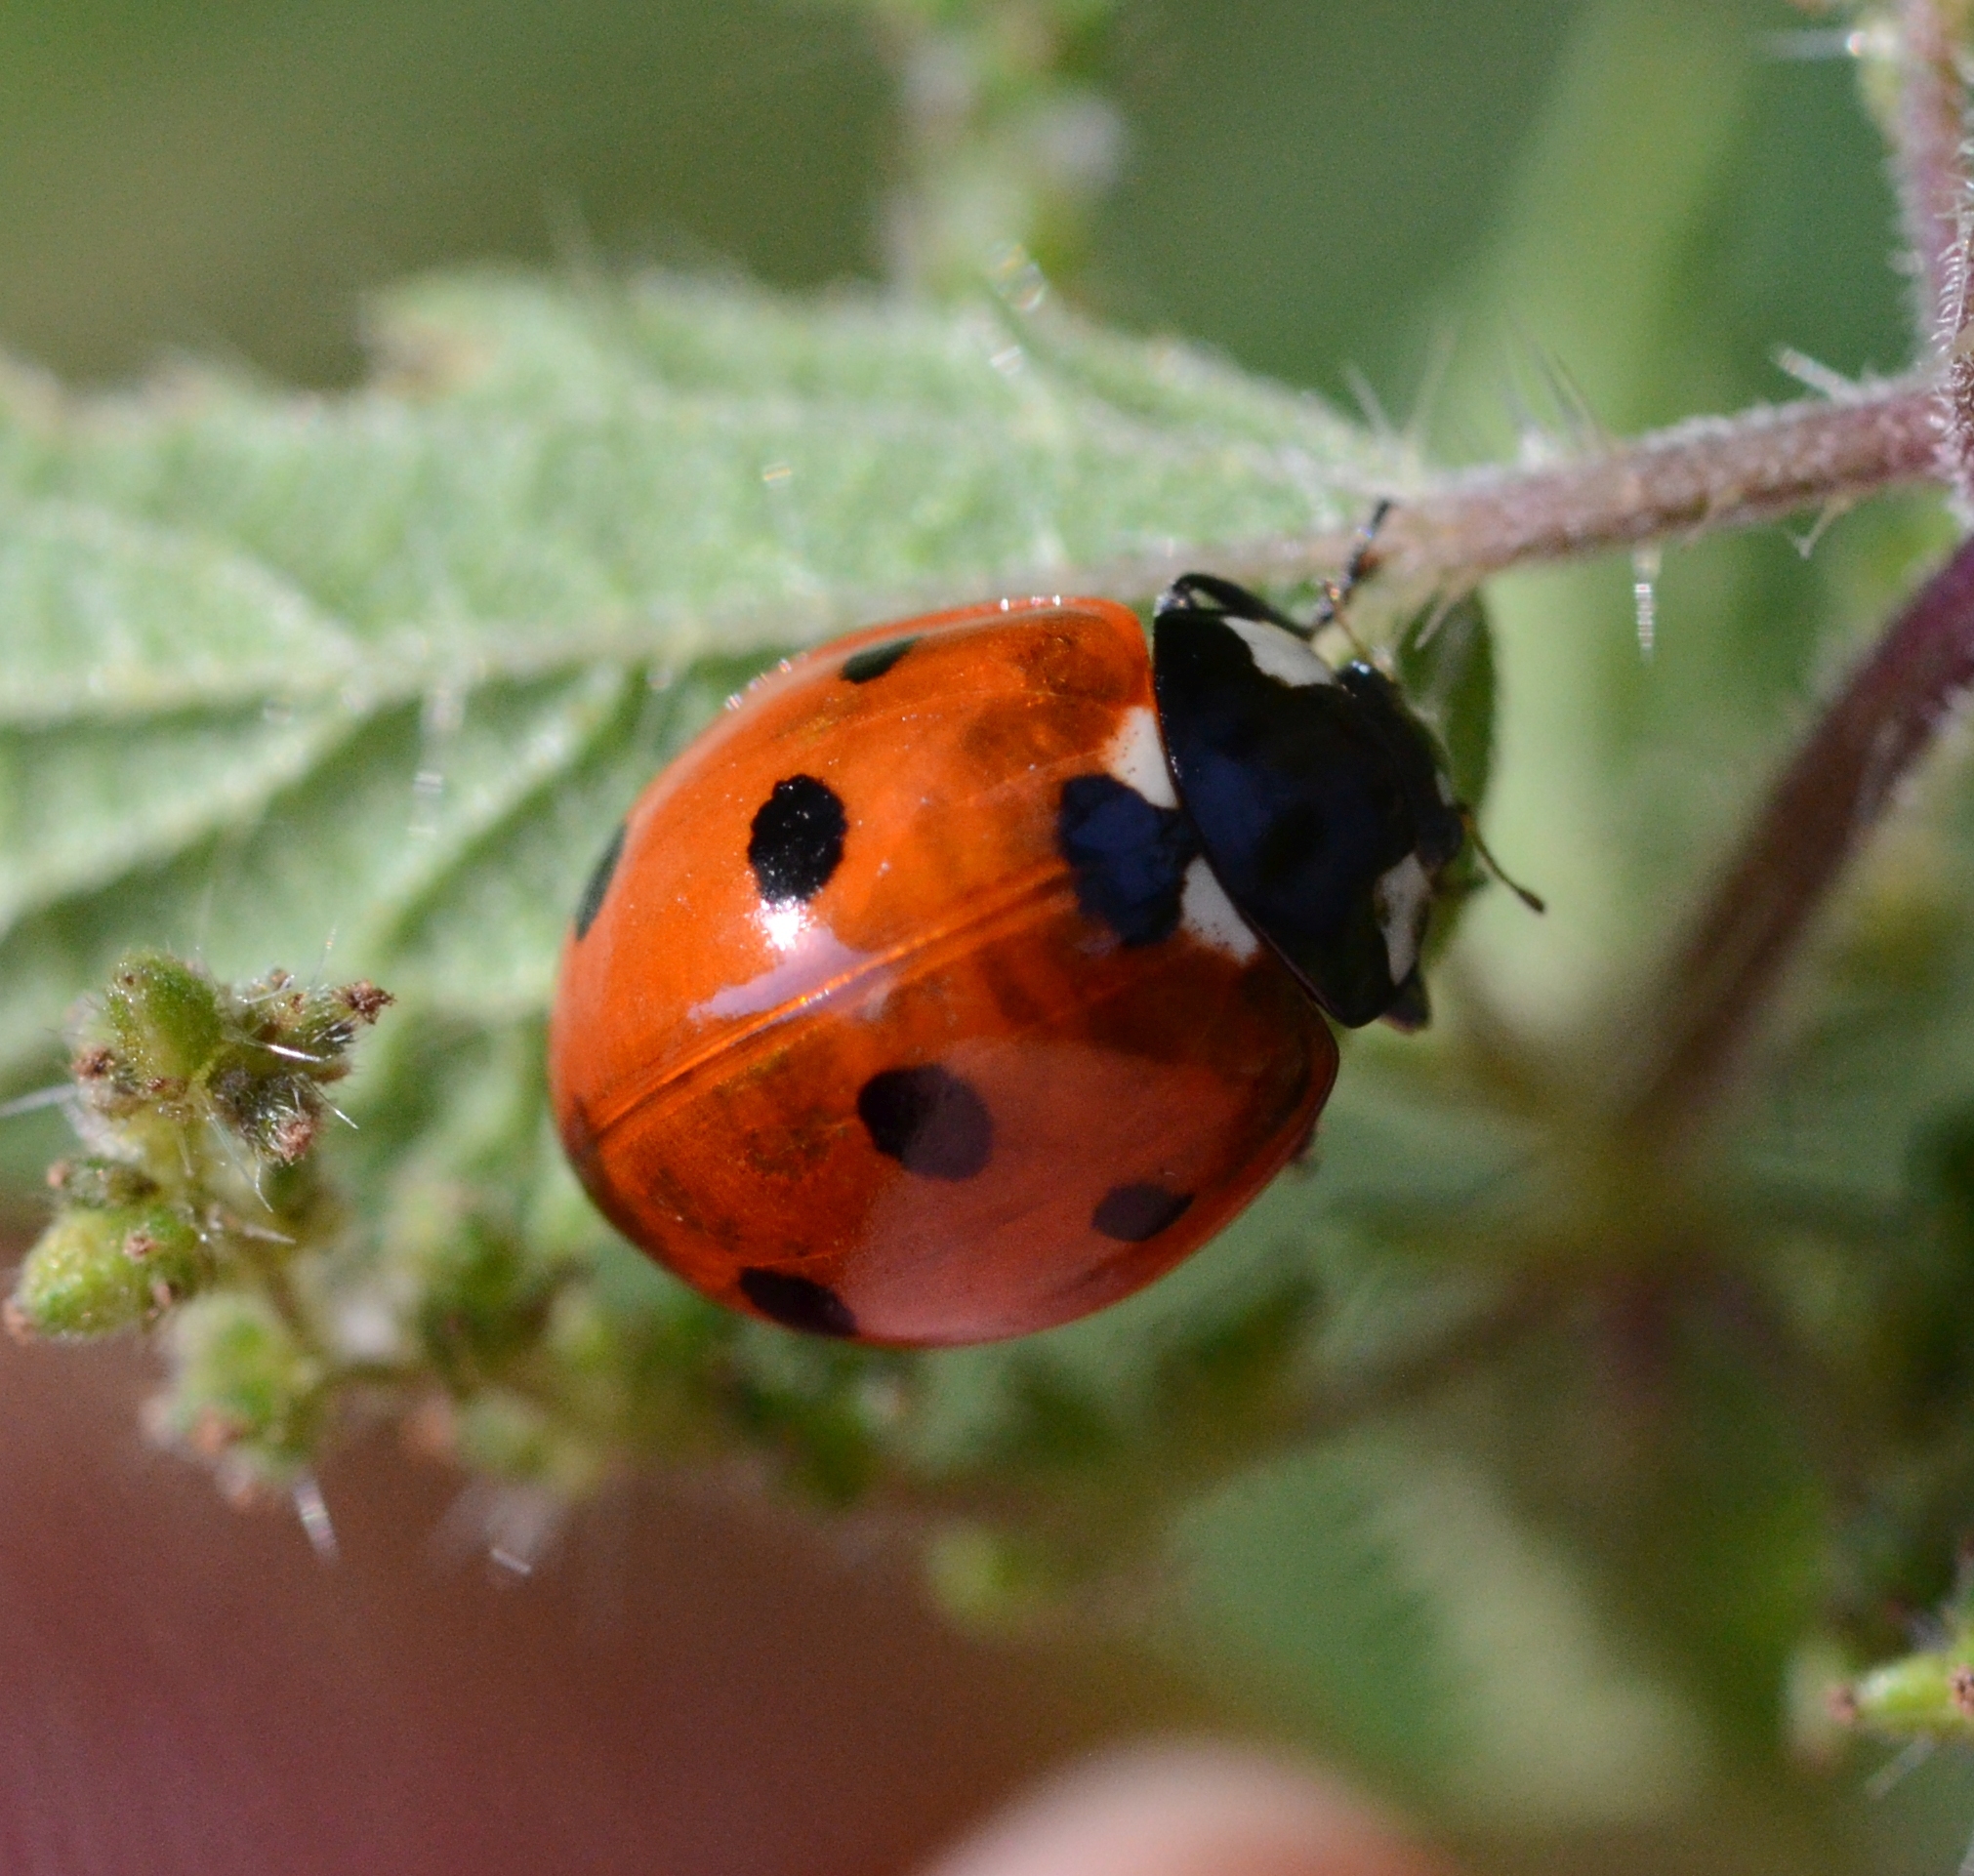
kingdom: Animalia
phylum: Arthropoda
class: Insecta
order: Coleoptera
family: Coccinellidae
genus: Coccinella
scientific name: Coccinella septempunctata
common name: Sevenspotted lady beetle
